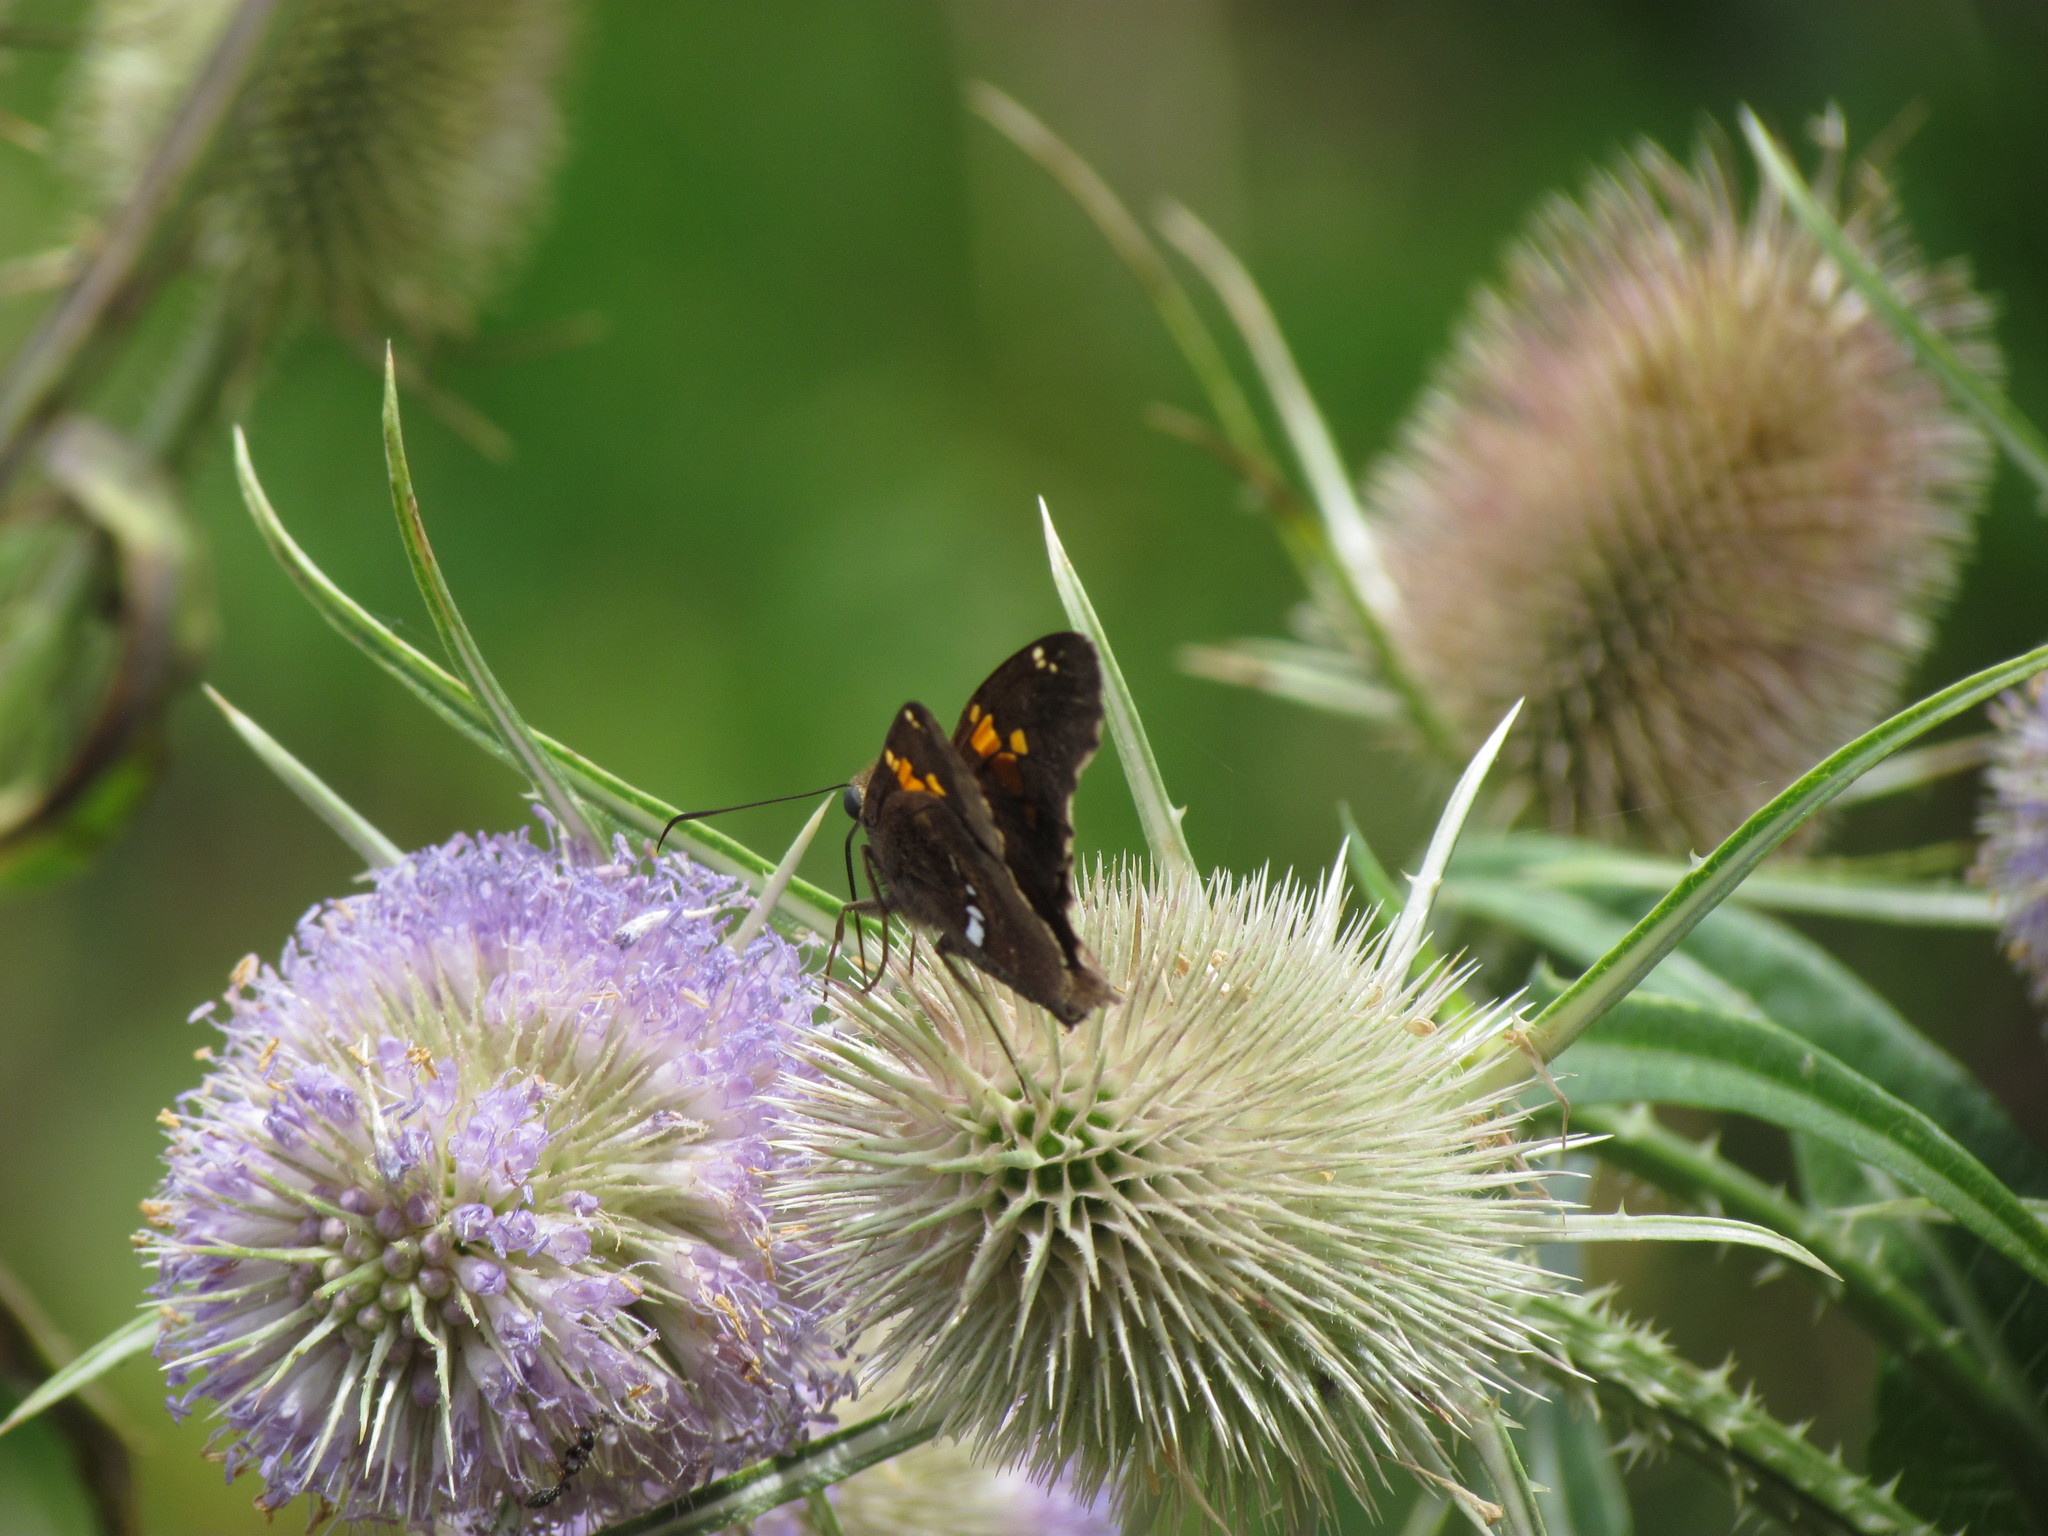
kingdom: Animalia
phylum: Arthropoda
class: Insecta
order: Lepidoptera
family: Hesperiidae
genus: Epargyreus
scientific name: Epargyreus tmolis
